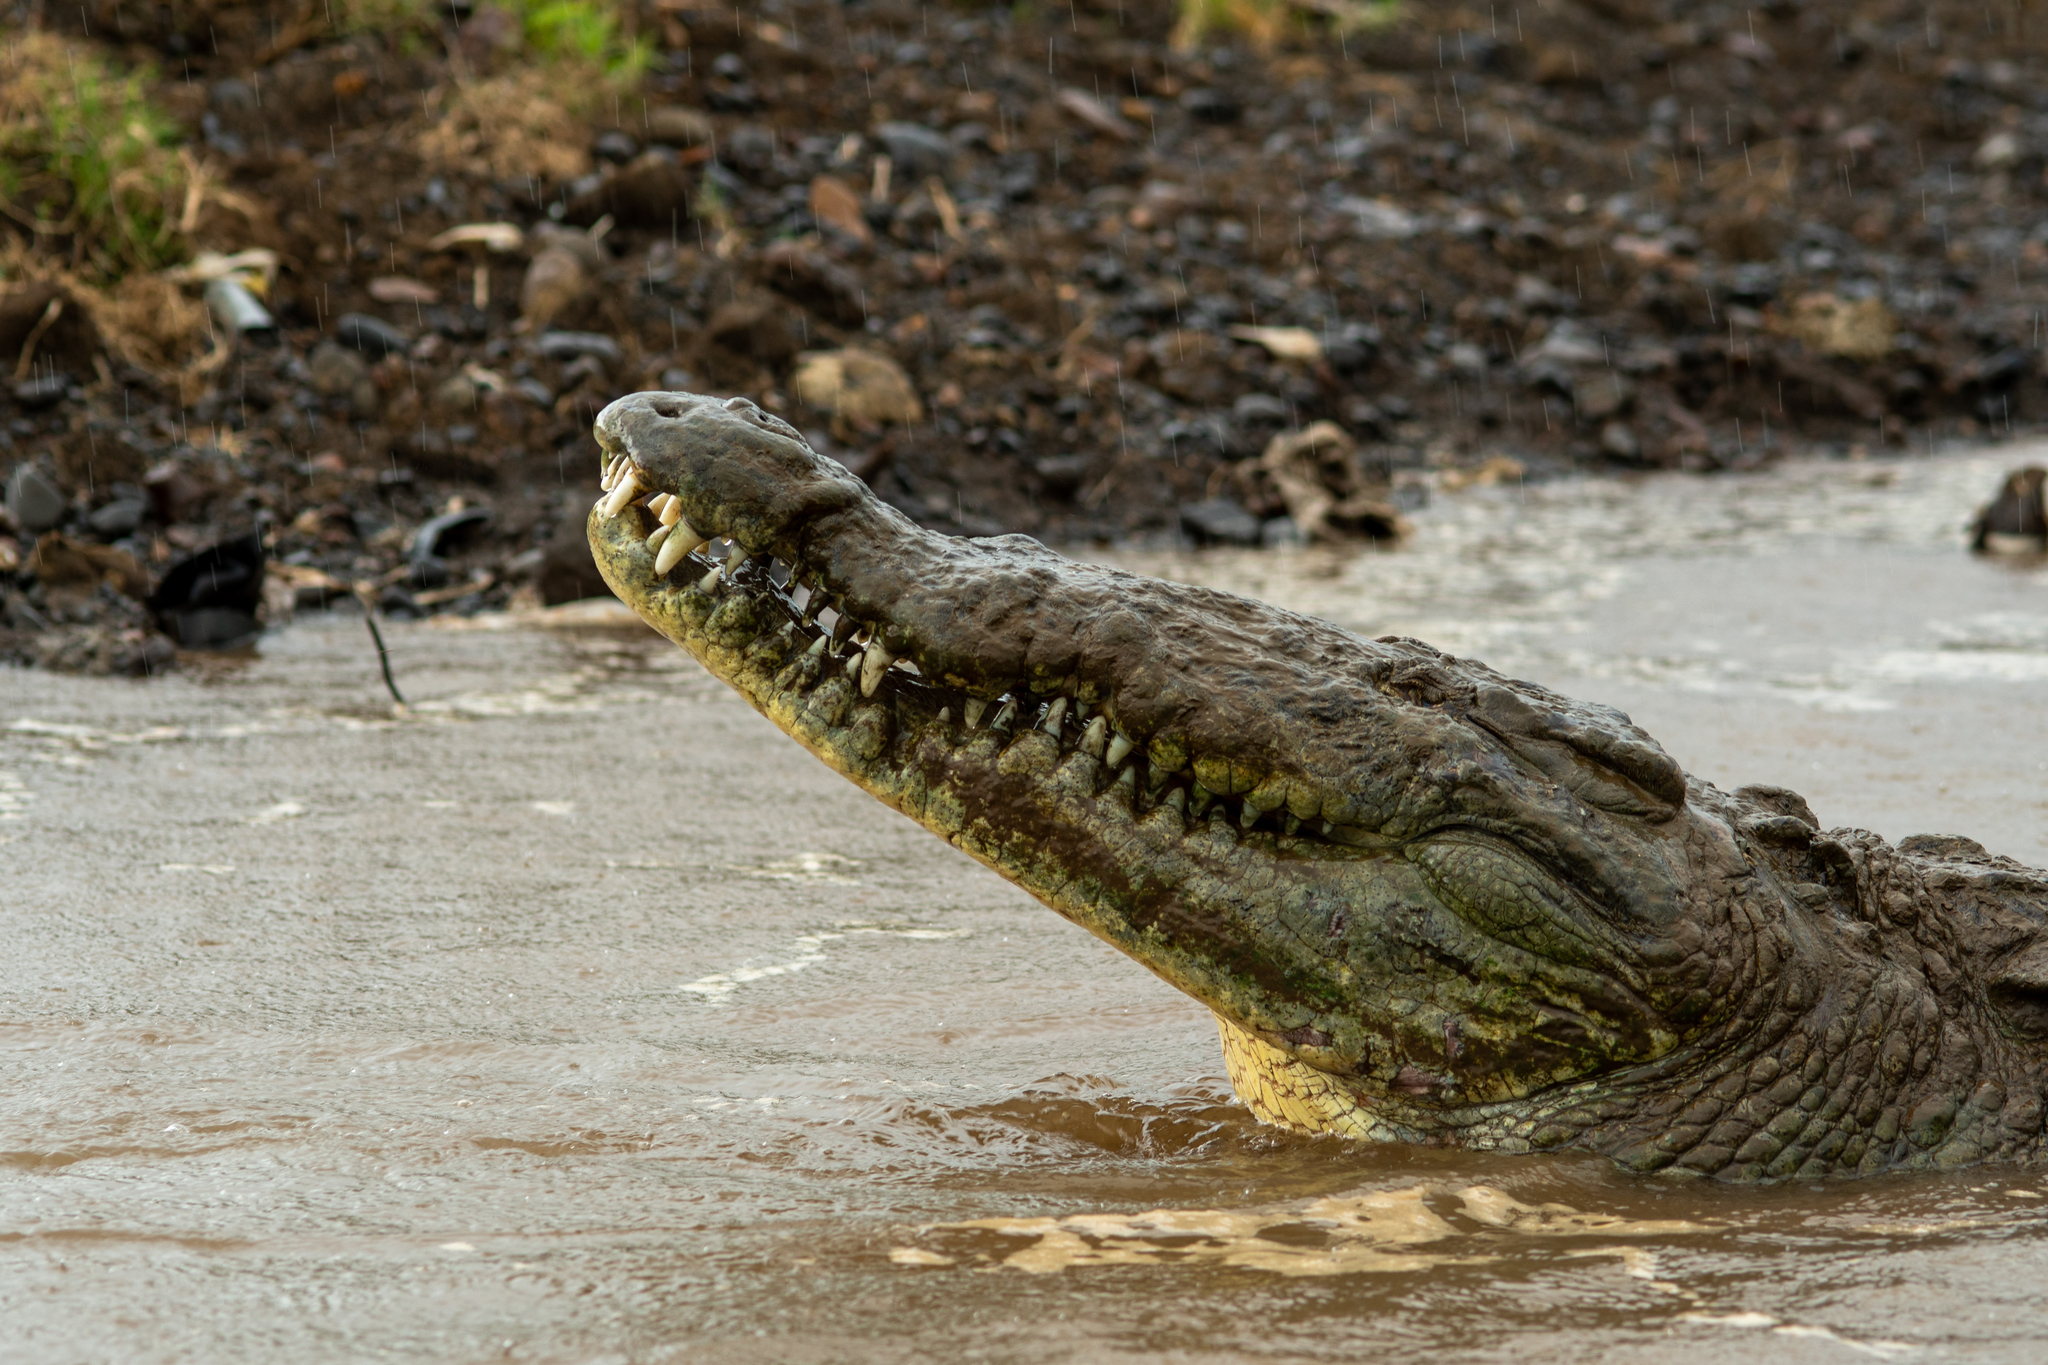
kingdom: Animalia
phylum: Chordata
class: Crocodylia
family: Crocodylidae
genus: Crocodylus
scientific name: Crocodylus acutus
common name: American crocodile
